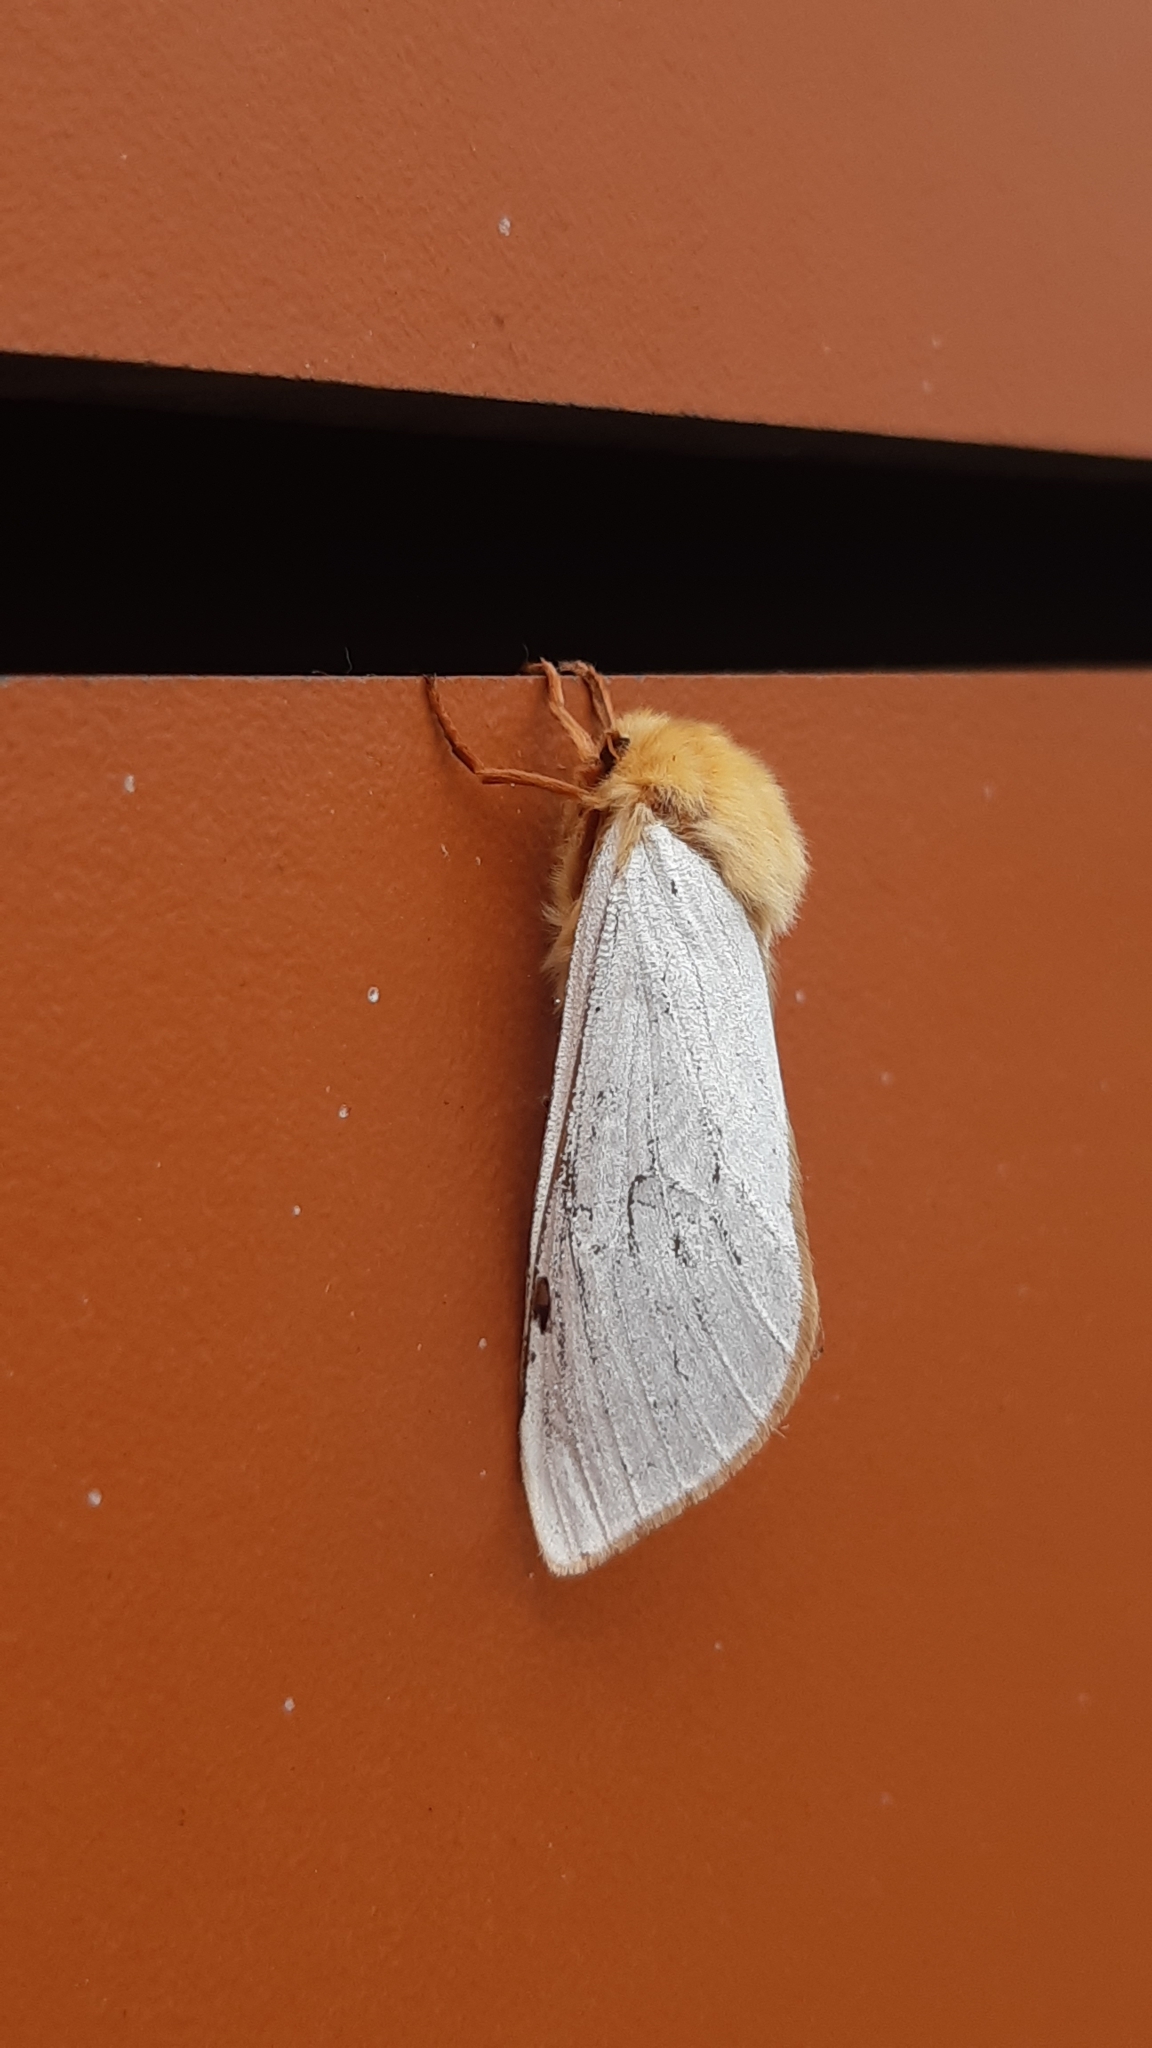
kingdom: Animalia
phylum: Arthropoda
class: Insecta
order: Lepidoptera
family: Hepialidae
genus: Hepialus
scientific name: Hepialus humuli
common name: Ghost moth
